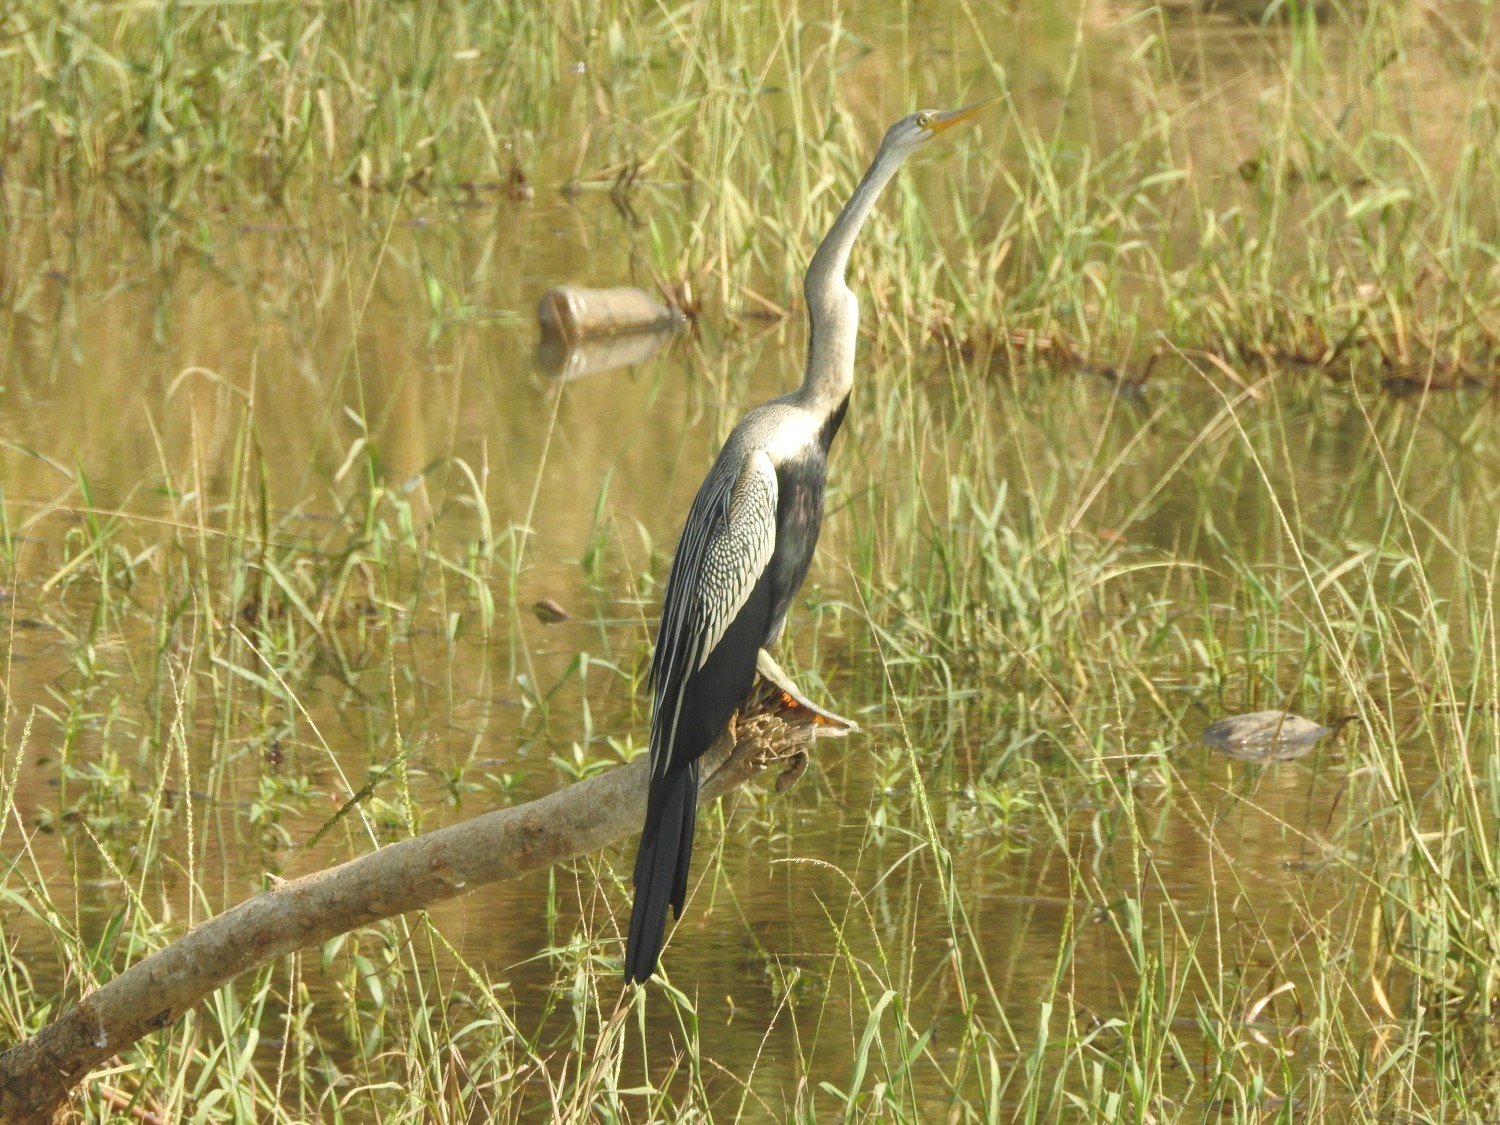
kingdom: Animalia
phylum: Chordata
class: Aves
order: Suliformes
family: Anhingidae
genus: Anhinga
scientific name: Anhinga melanogaster
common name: Oriental darter
